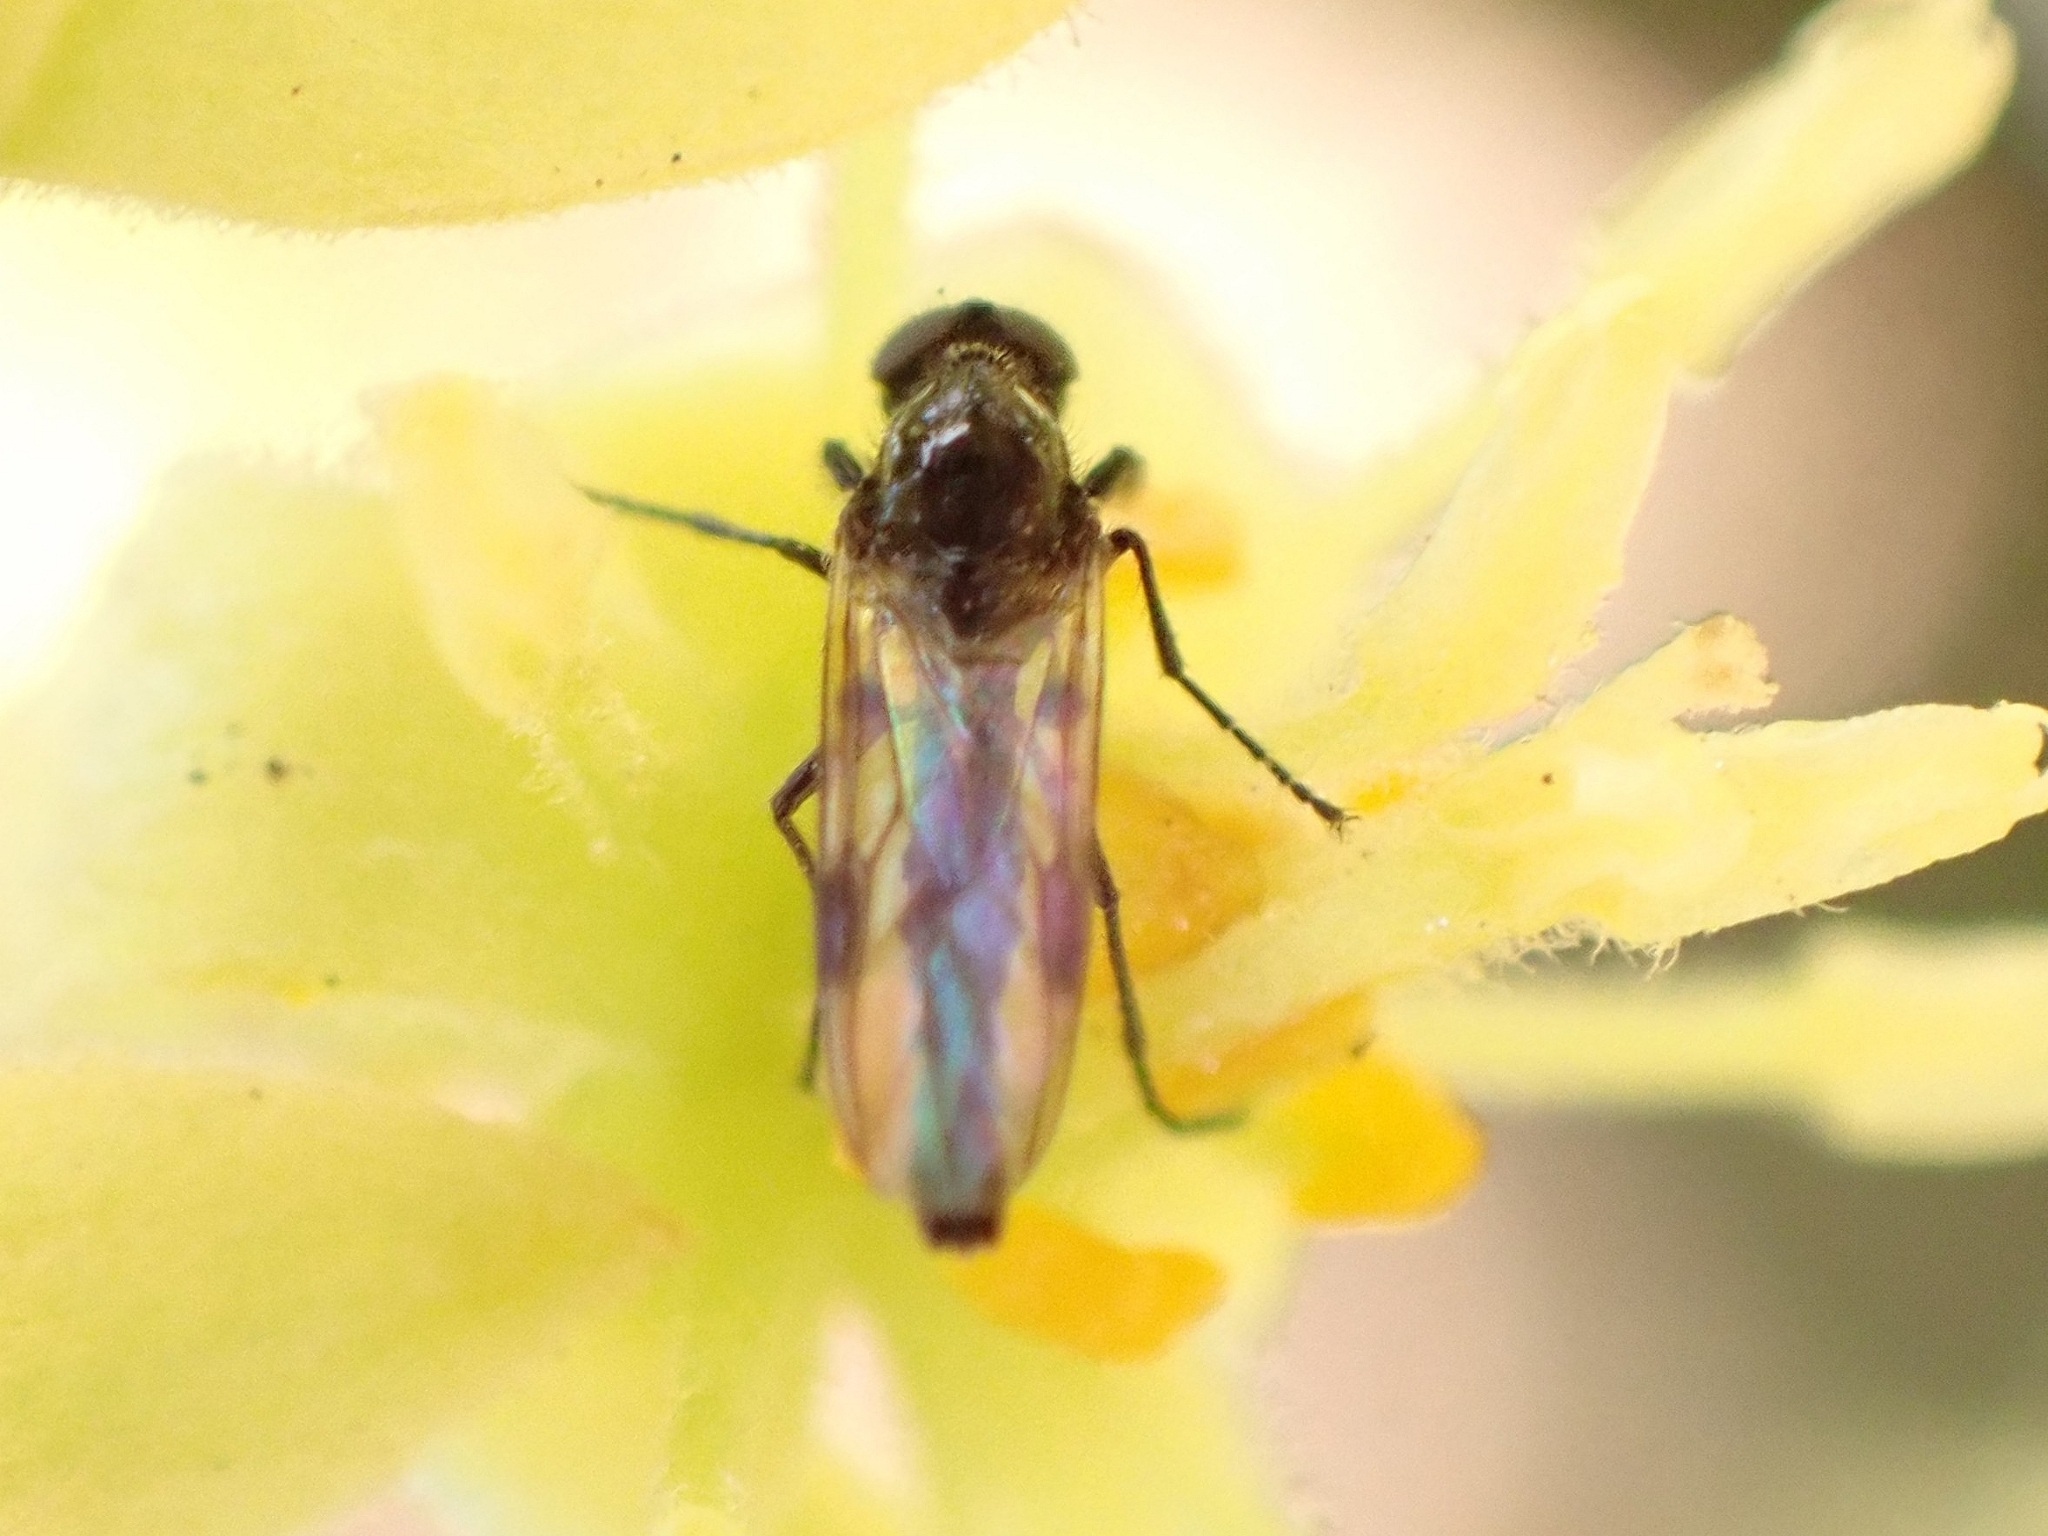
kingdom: Animalia
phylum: Arthropoda
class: Insecta
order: Diptera
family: Bibionidae
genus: Dilophus
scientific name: Dilophus beckeri
